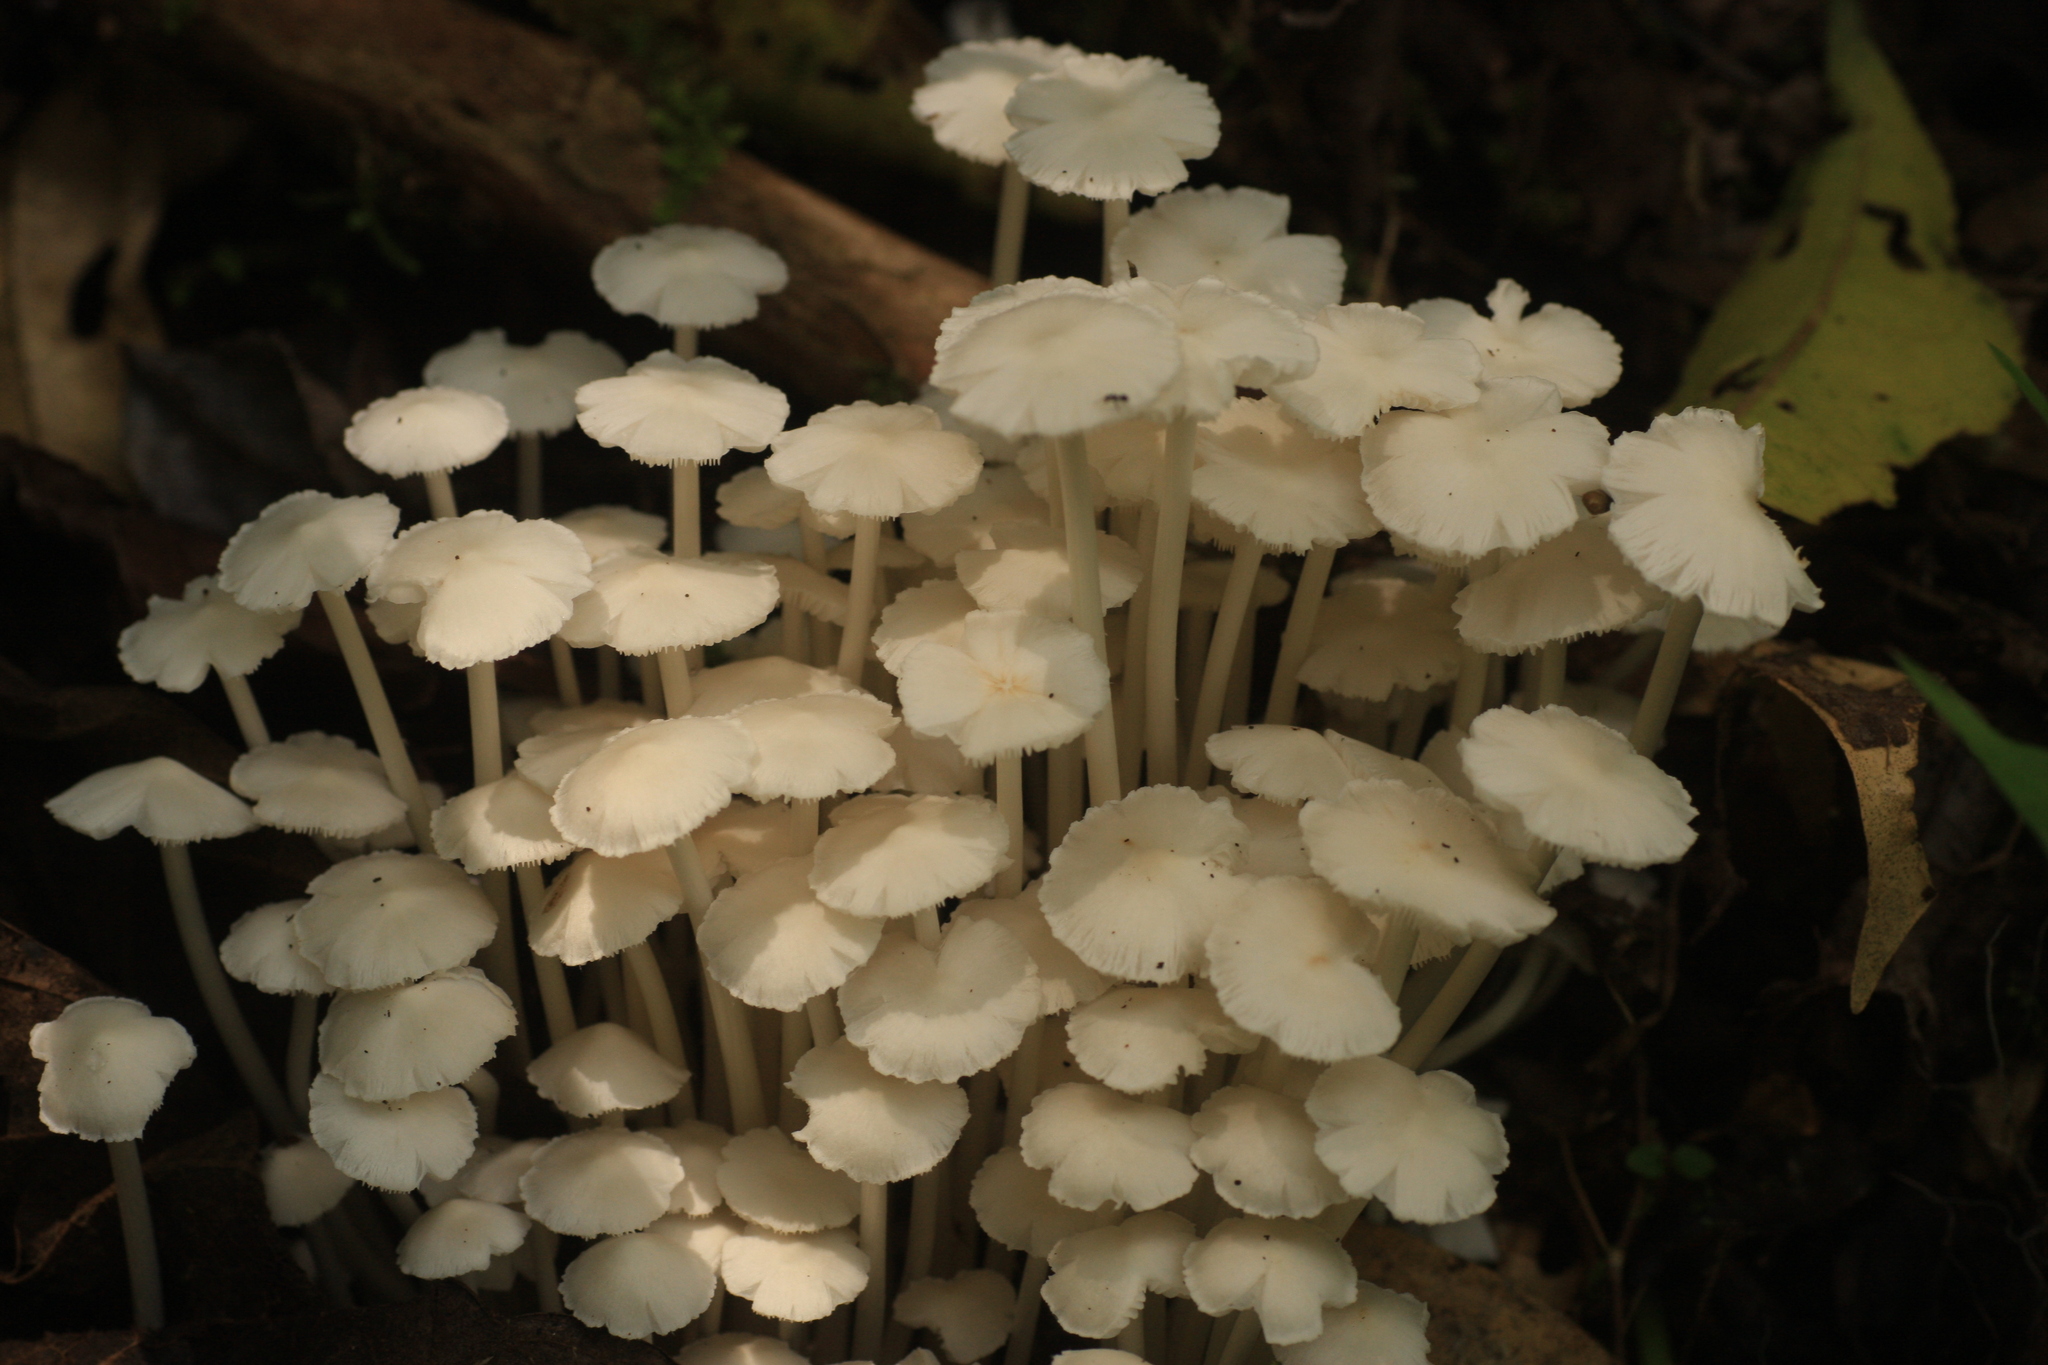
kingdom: Fungi
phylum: Basidiomycota
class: Agaricomycetes
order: Agaricales
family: Lyophyllaceae
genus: Termitomyces
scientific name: Termitomyces microcarpus
